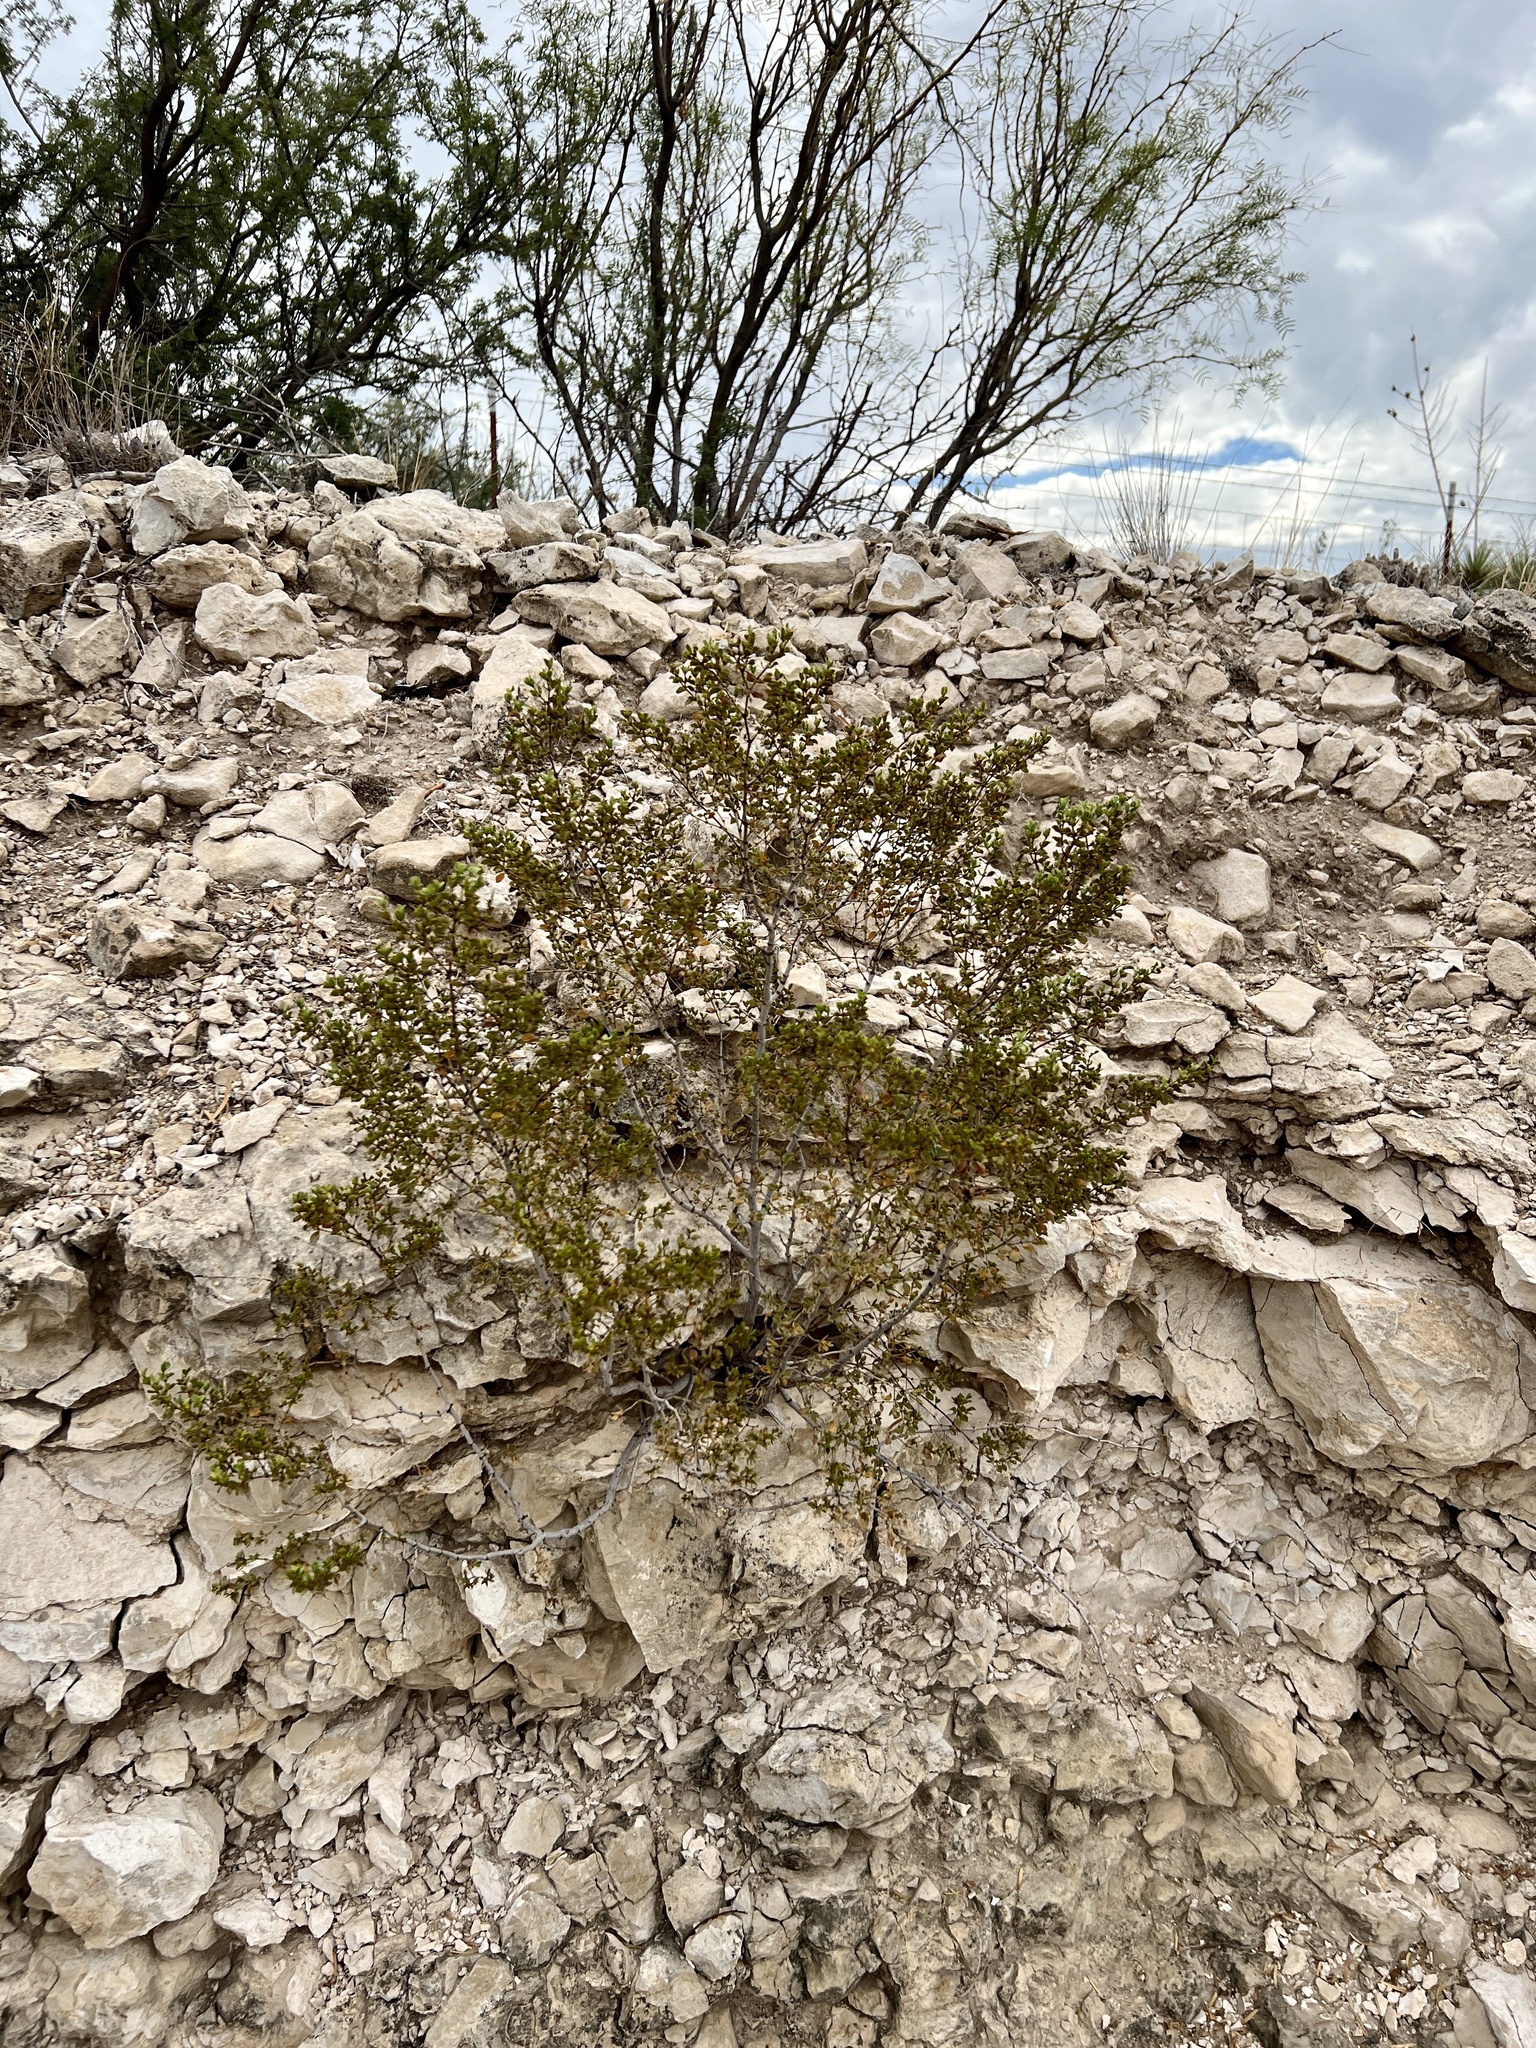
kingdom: Plantae
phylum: Tracheophyta
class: Magnoliopsida
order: Zygophyllales
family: Zygophyllaceae
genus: Larrea
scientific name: Larrea tridentata
